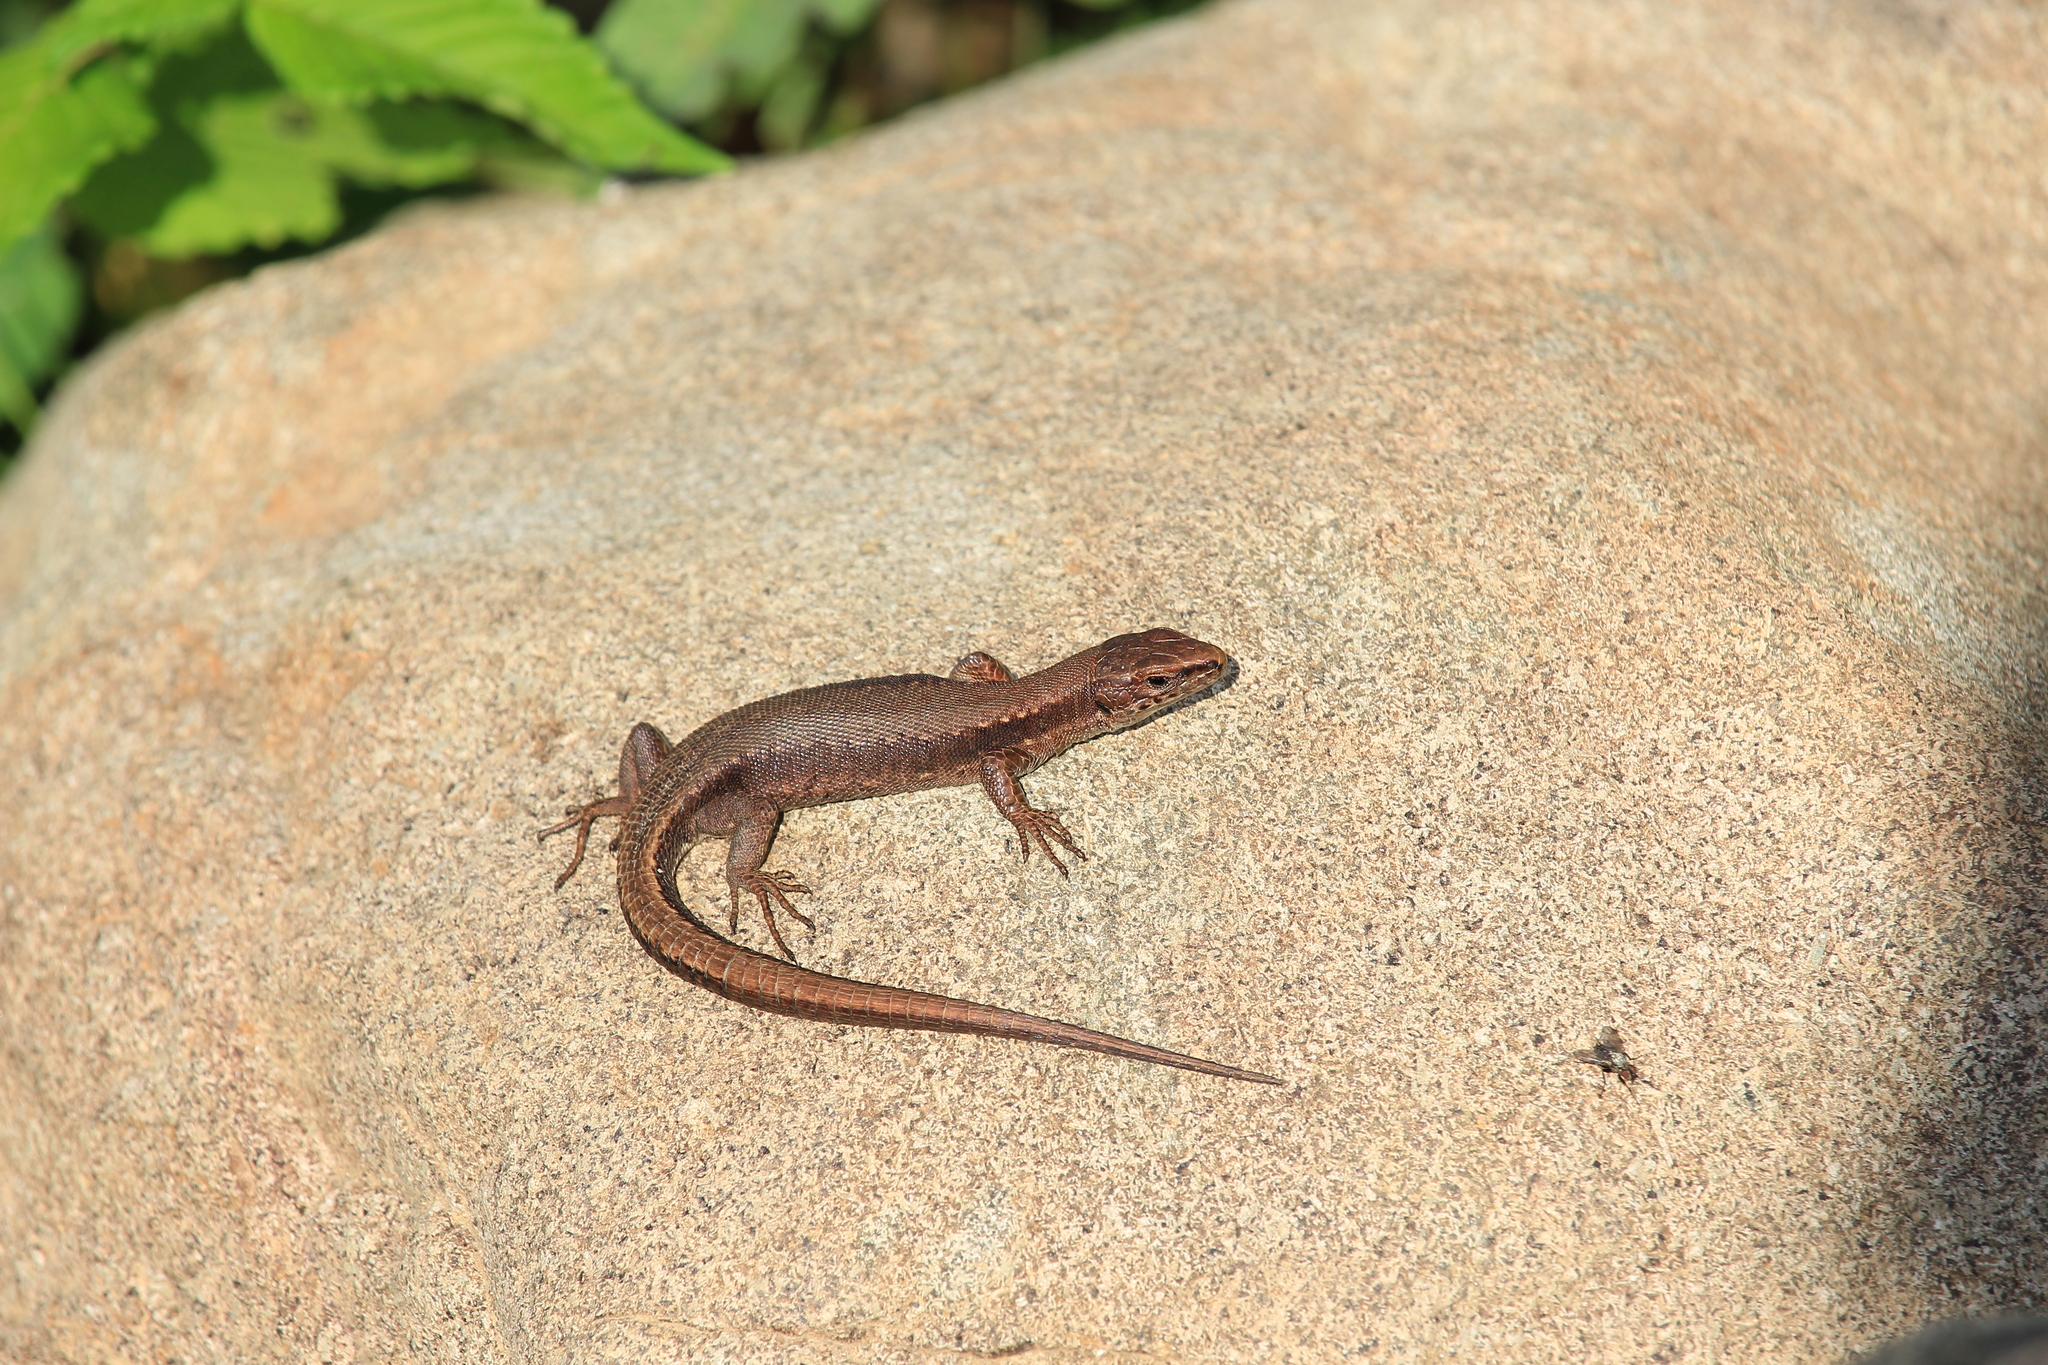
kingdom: Animalia
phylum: Chordata
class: Squamata
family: Lacertidae
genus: Darevskia
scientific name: Darevskia derjugini
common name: Derjugin's lizard
